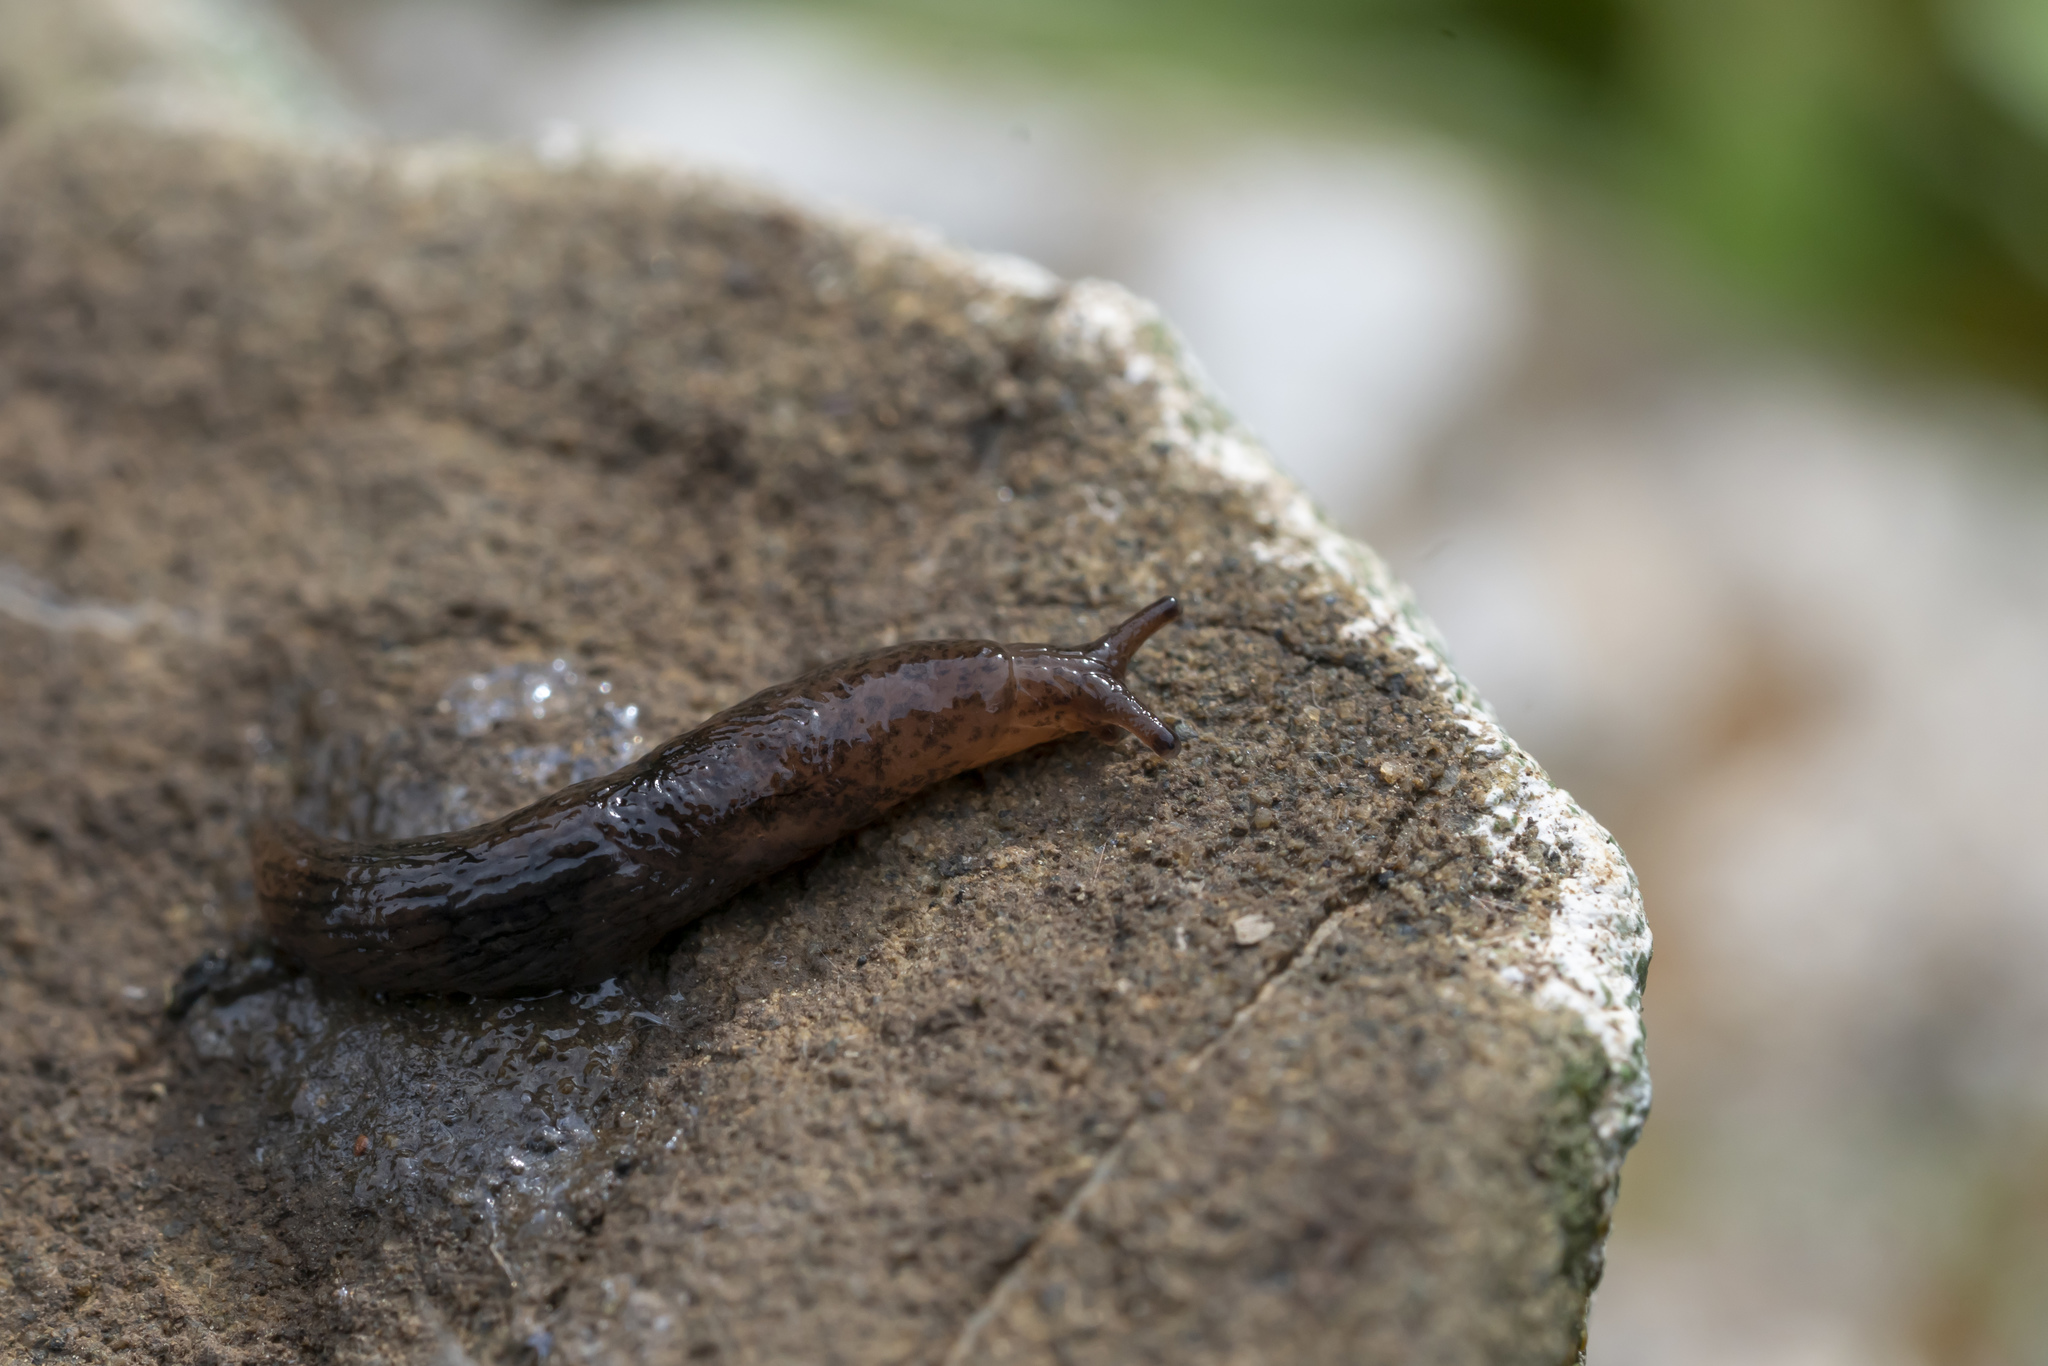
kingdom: Animalia
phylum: Mollusca
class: Gastropoda
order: Stylommatophora
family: Agriolimacidae
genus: Deroceras
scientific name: Deroceras neuteboomi
